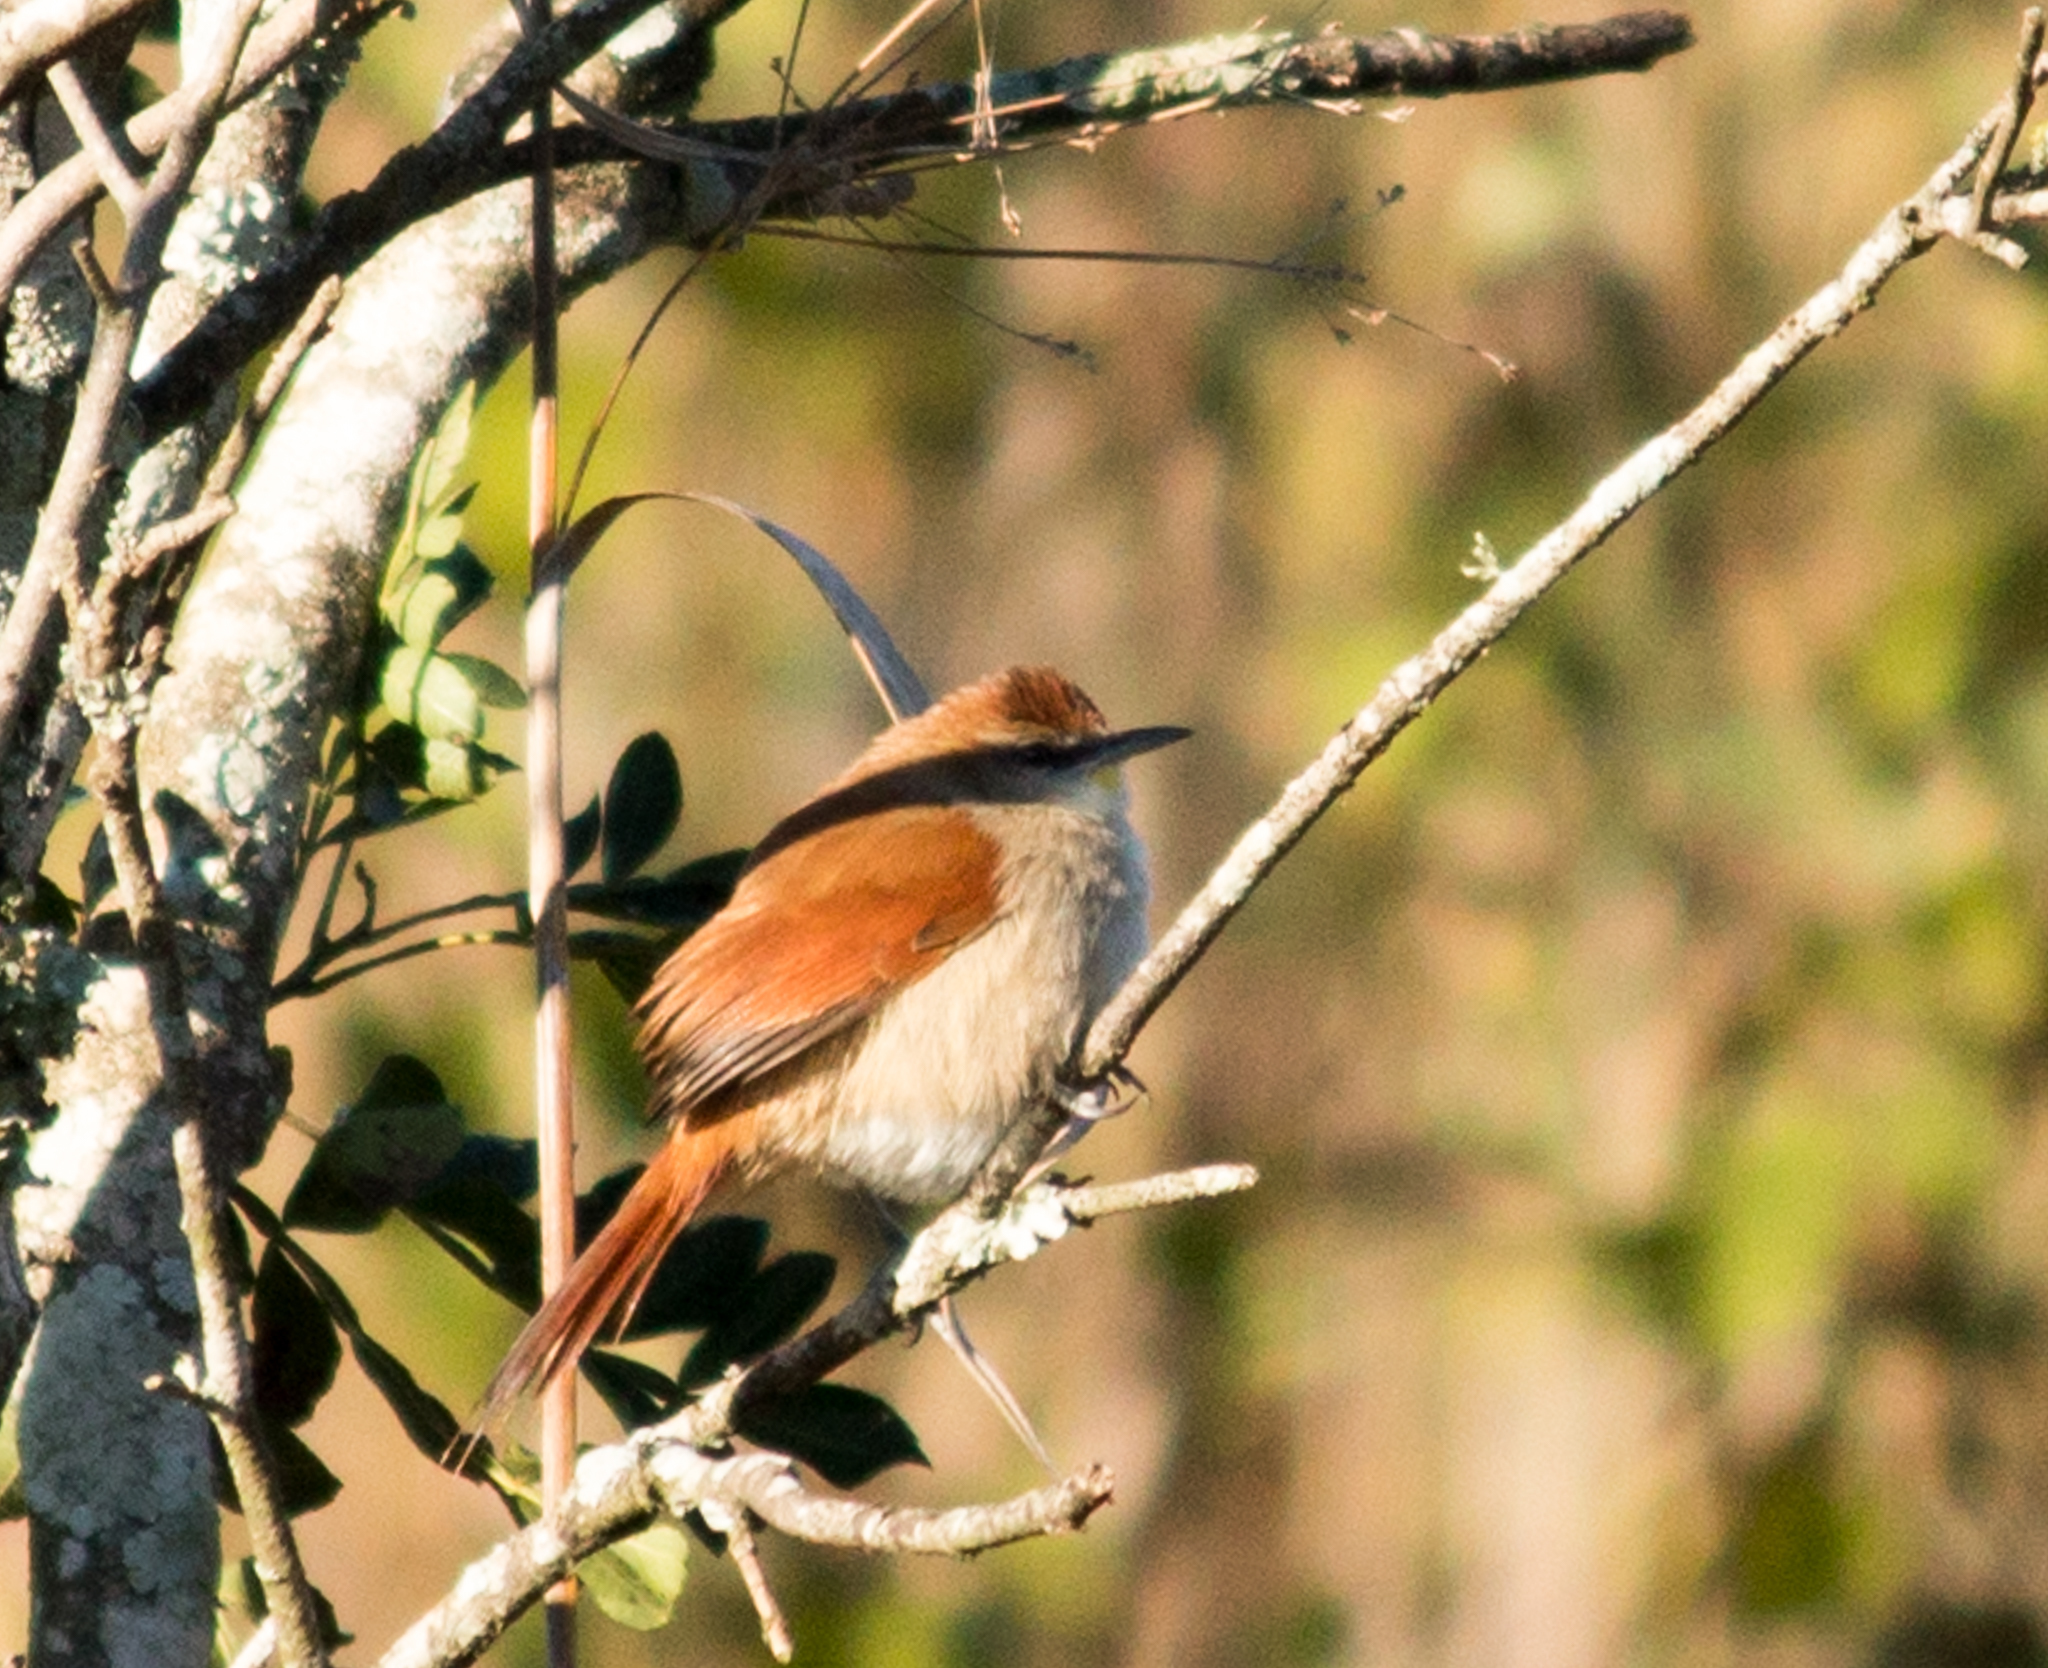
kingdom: Animalia
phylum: Chordata
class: Aves
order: Passeriformes
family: Furnariidae
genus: Certhiaxis
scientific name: Certhiaxis cinnamomeus
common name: Yellow-chinned spinetail
